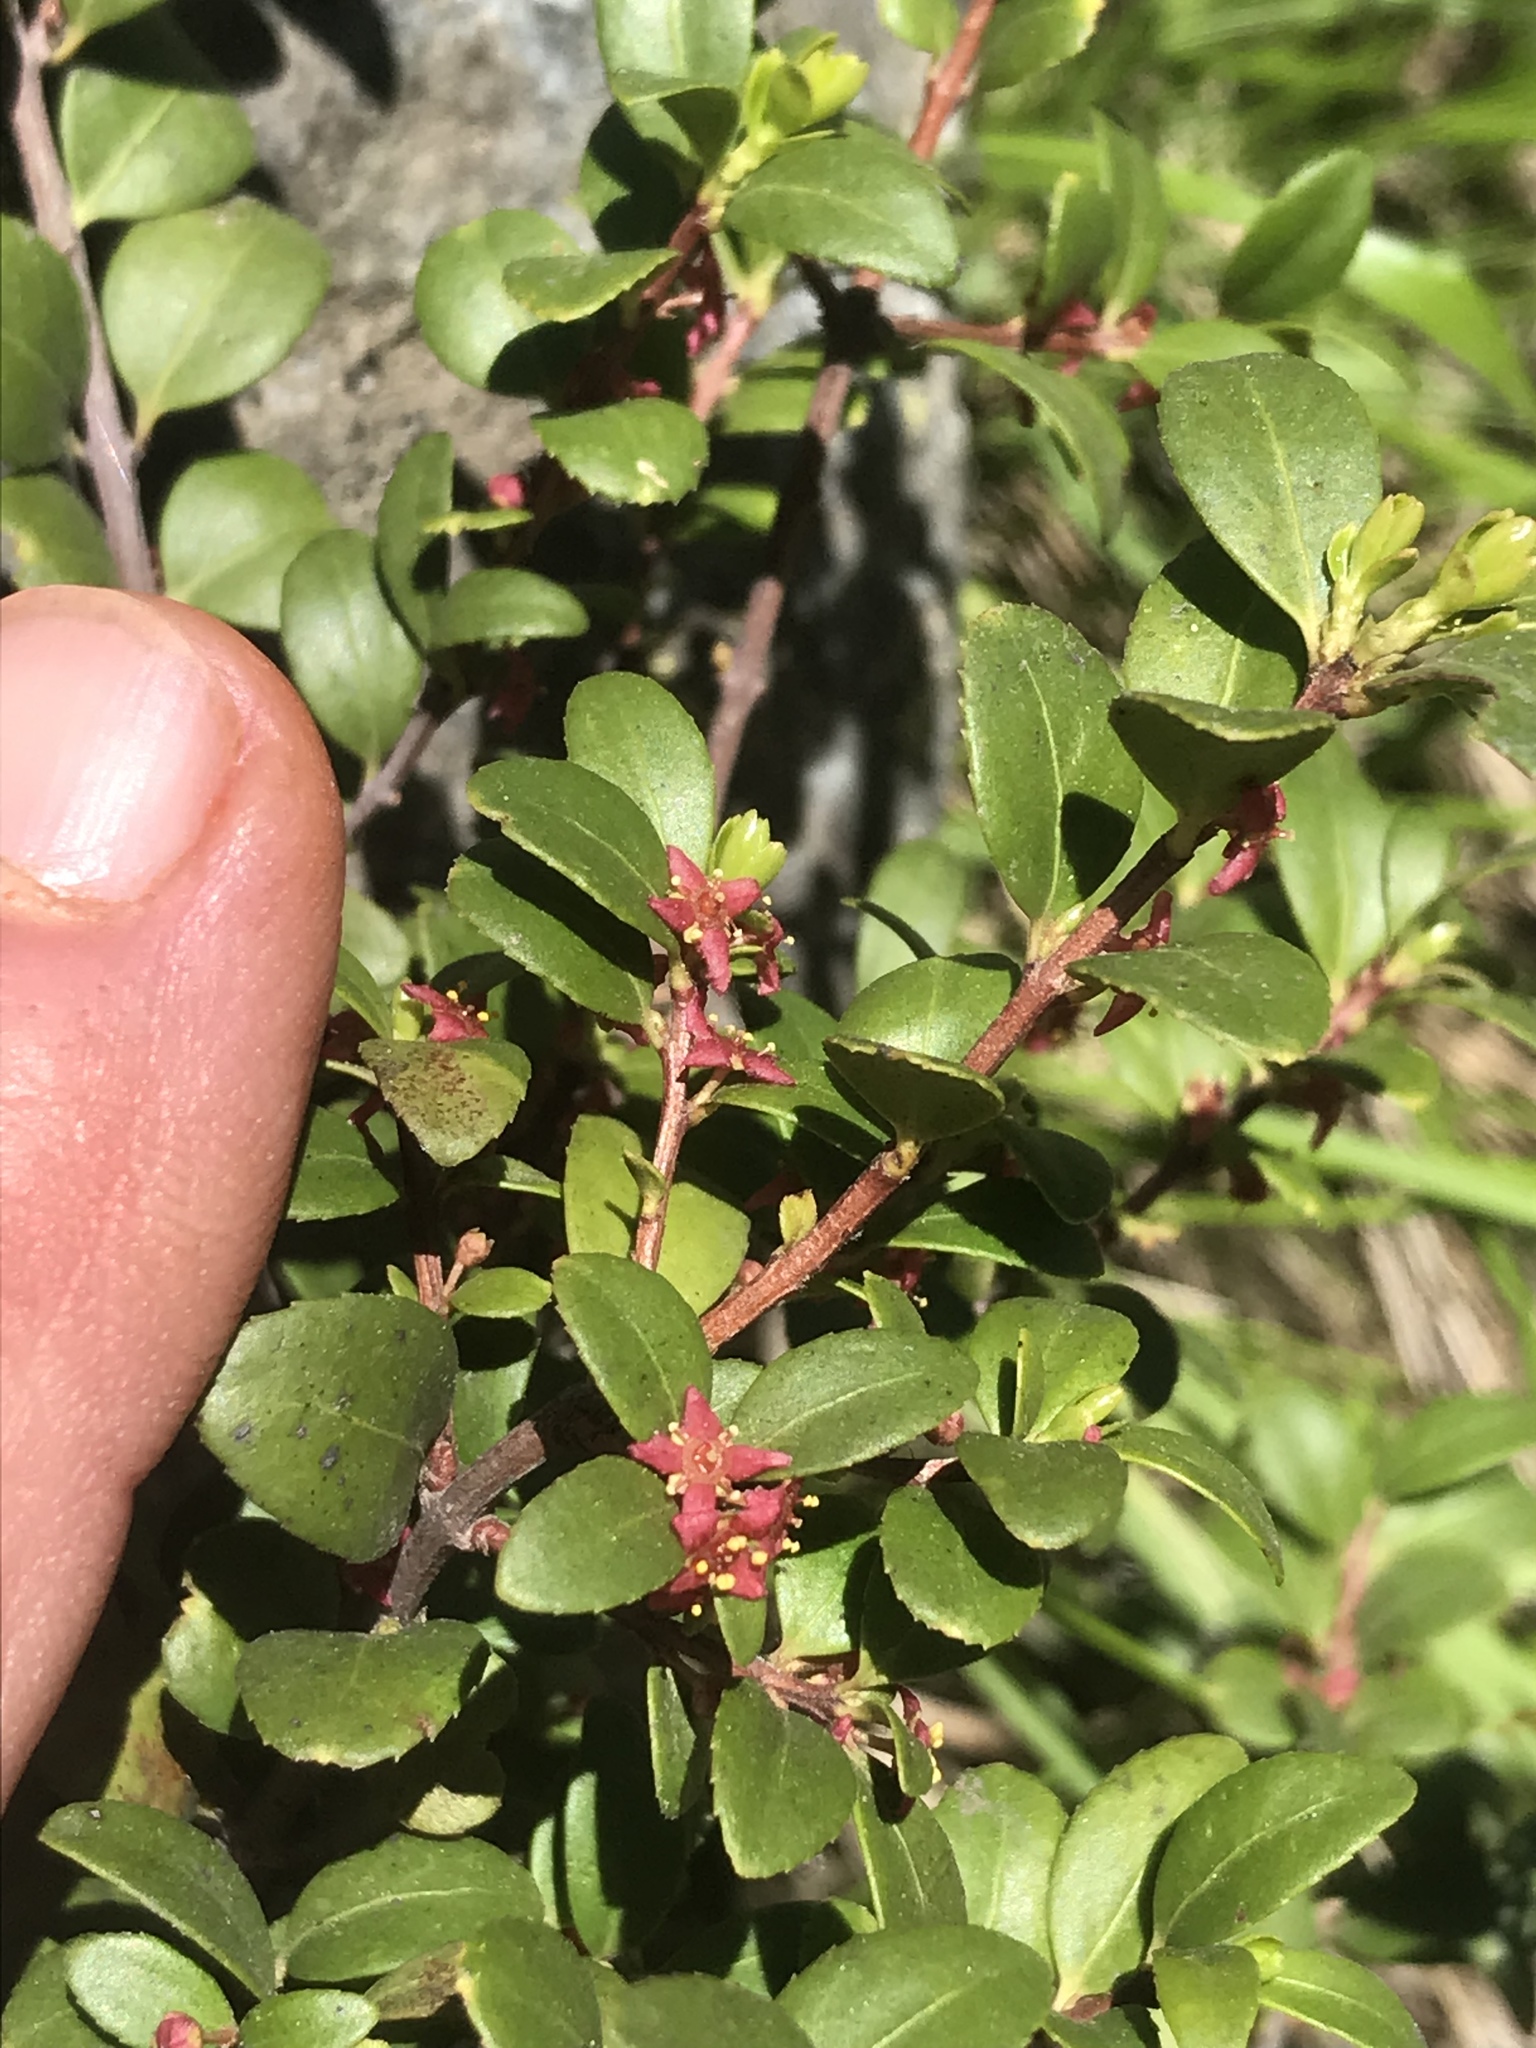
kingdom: Plantae
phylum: Tracheophyta
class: Magnoliopsida
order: Celastrales
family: Celastraceae
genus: Paxistima
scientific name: Paxistima myrsinites
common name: Mountain-lover
